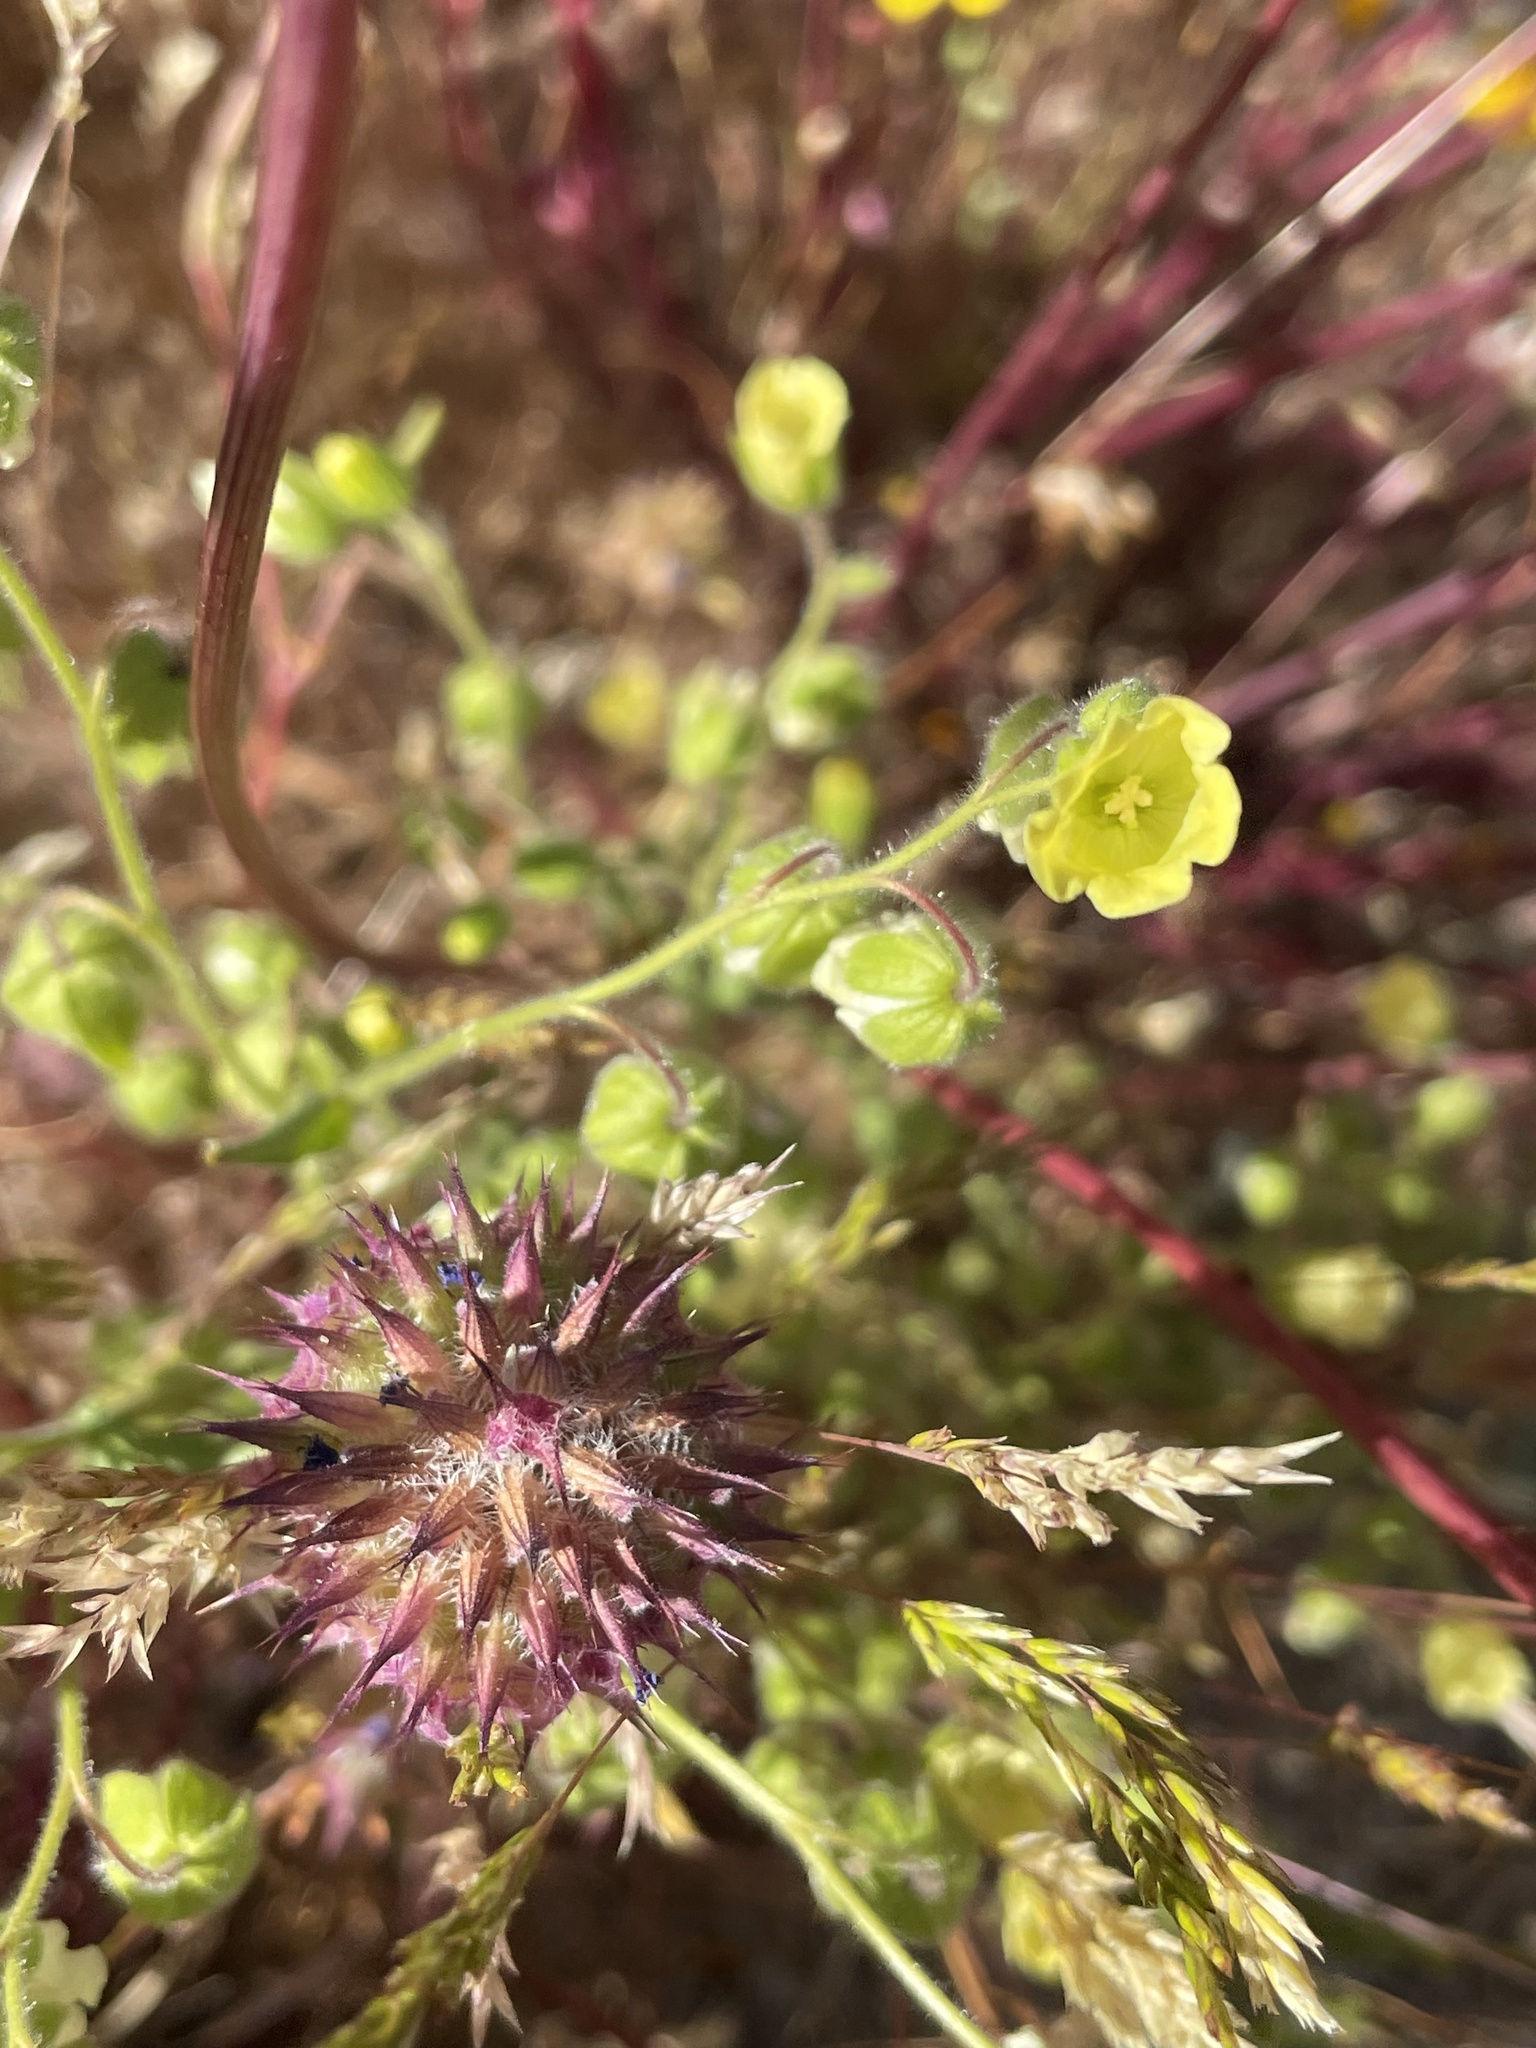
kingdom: Plantae
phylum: Tracheophyta
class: Magnoliopsida
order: Boraginales
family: Hydrophyllaceae
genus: Emmenanthe
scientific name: Emmenanthe penduliflora
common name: Whispering-bells
